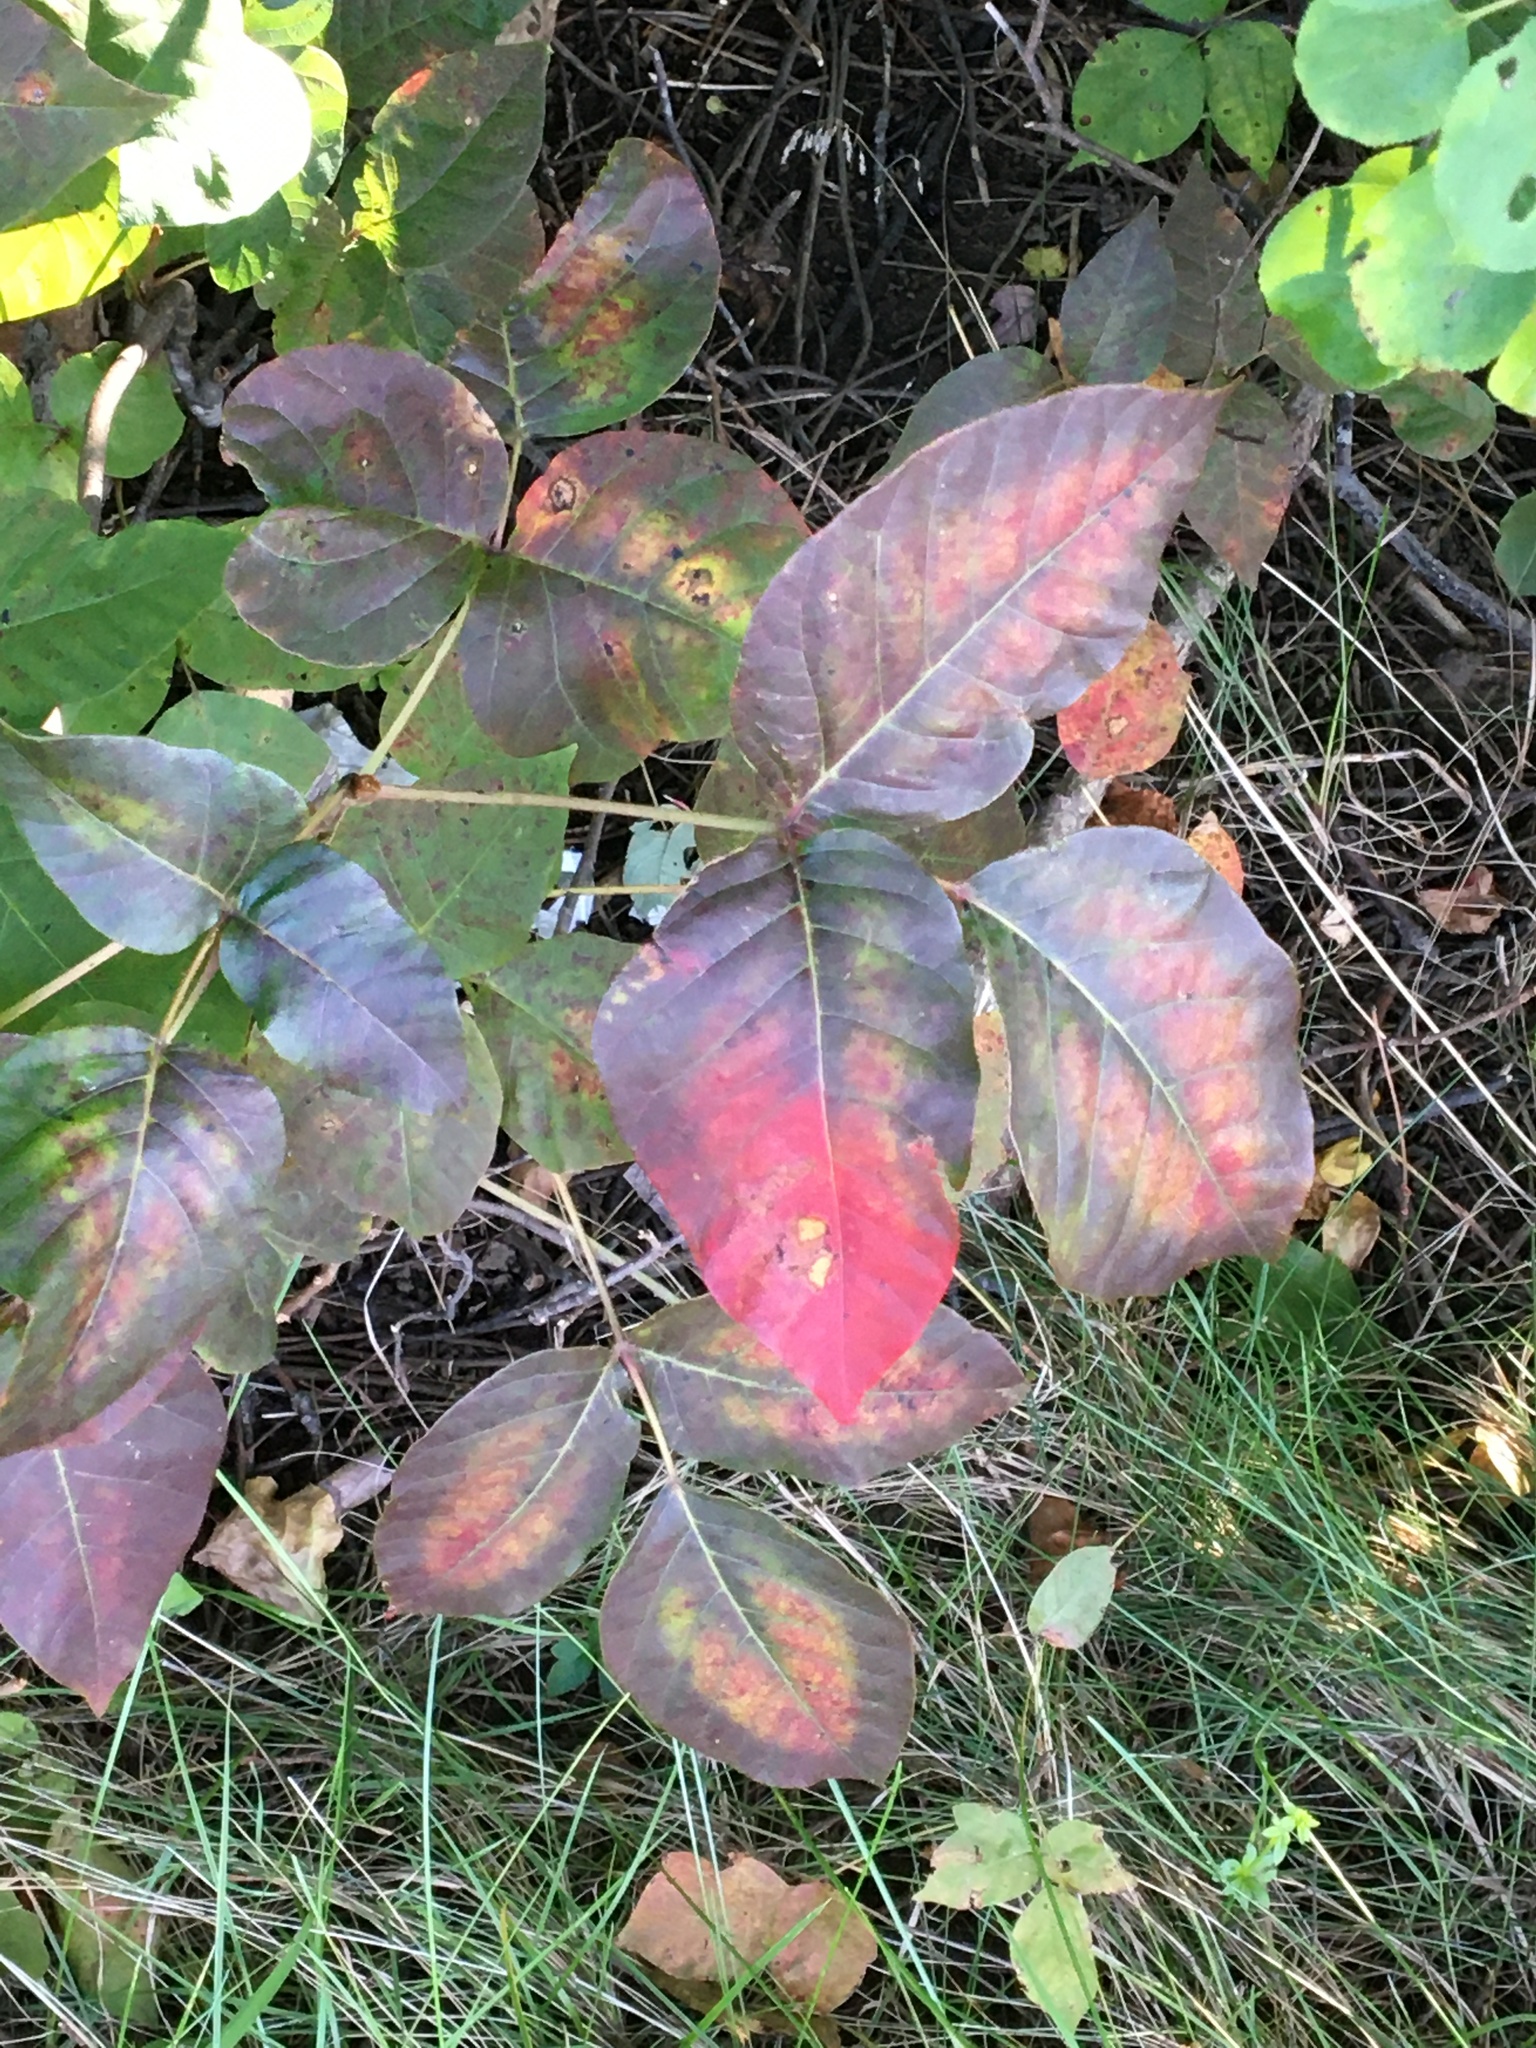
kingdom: Plantae
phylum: Tracheophyta
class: Magnoliopsida
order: Sapindales
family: Anacardiaceae
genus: Toxicodendron
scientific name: Toxicodendron radicans
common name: Poison ivy
